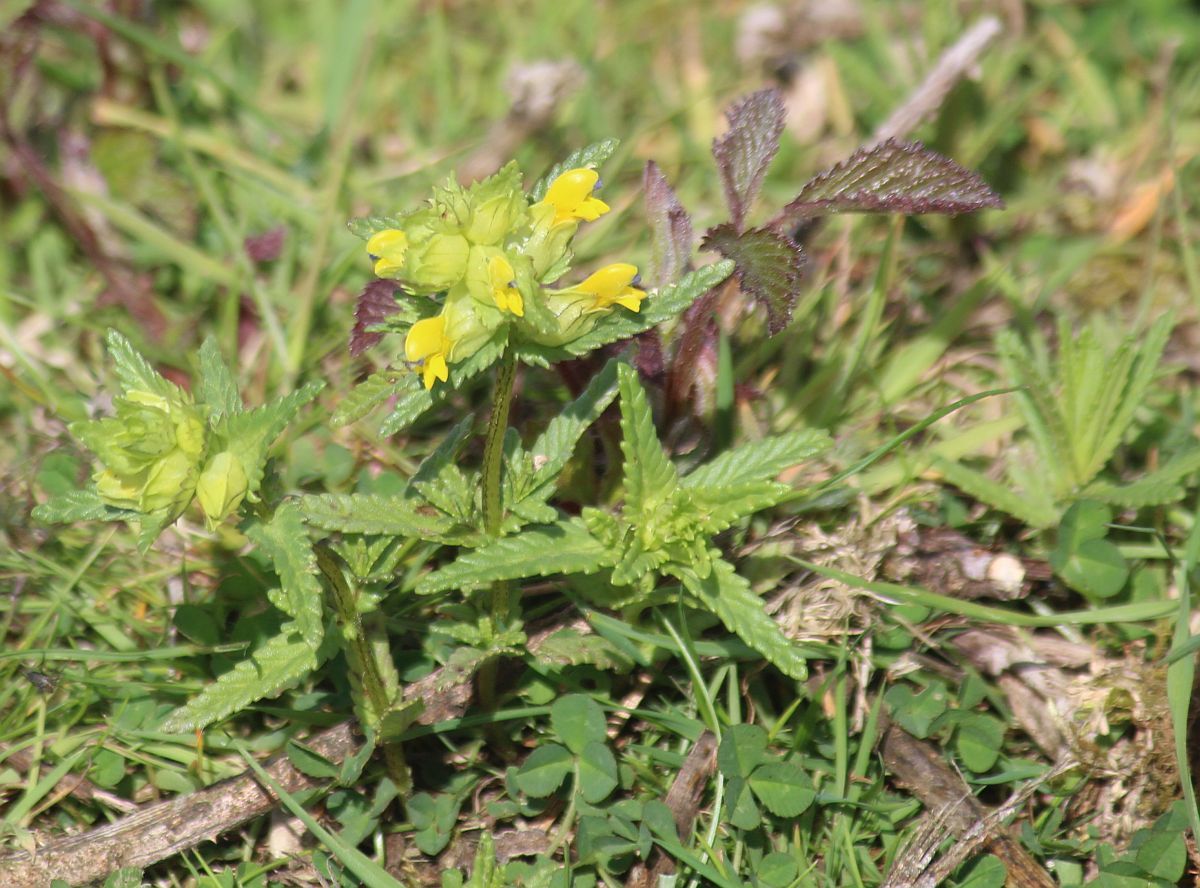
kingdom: Plantae
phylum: Tracheophyta
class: Magnoliopsida
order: Lamiales
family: Orobanchaceae
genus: Rhinanthus
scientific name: Rhinanthus minor
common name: Yellow-rattle
